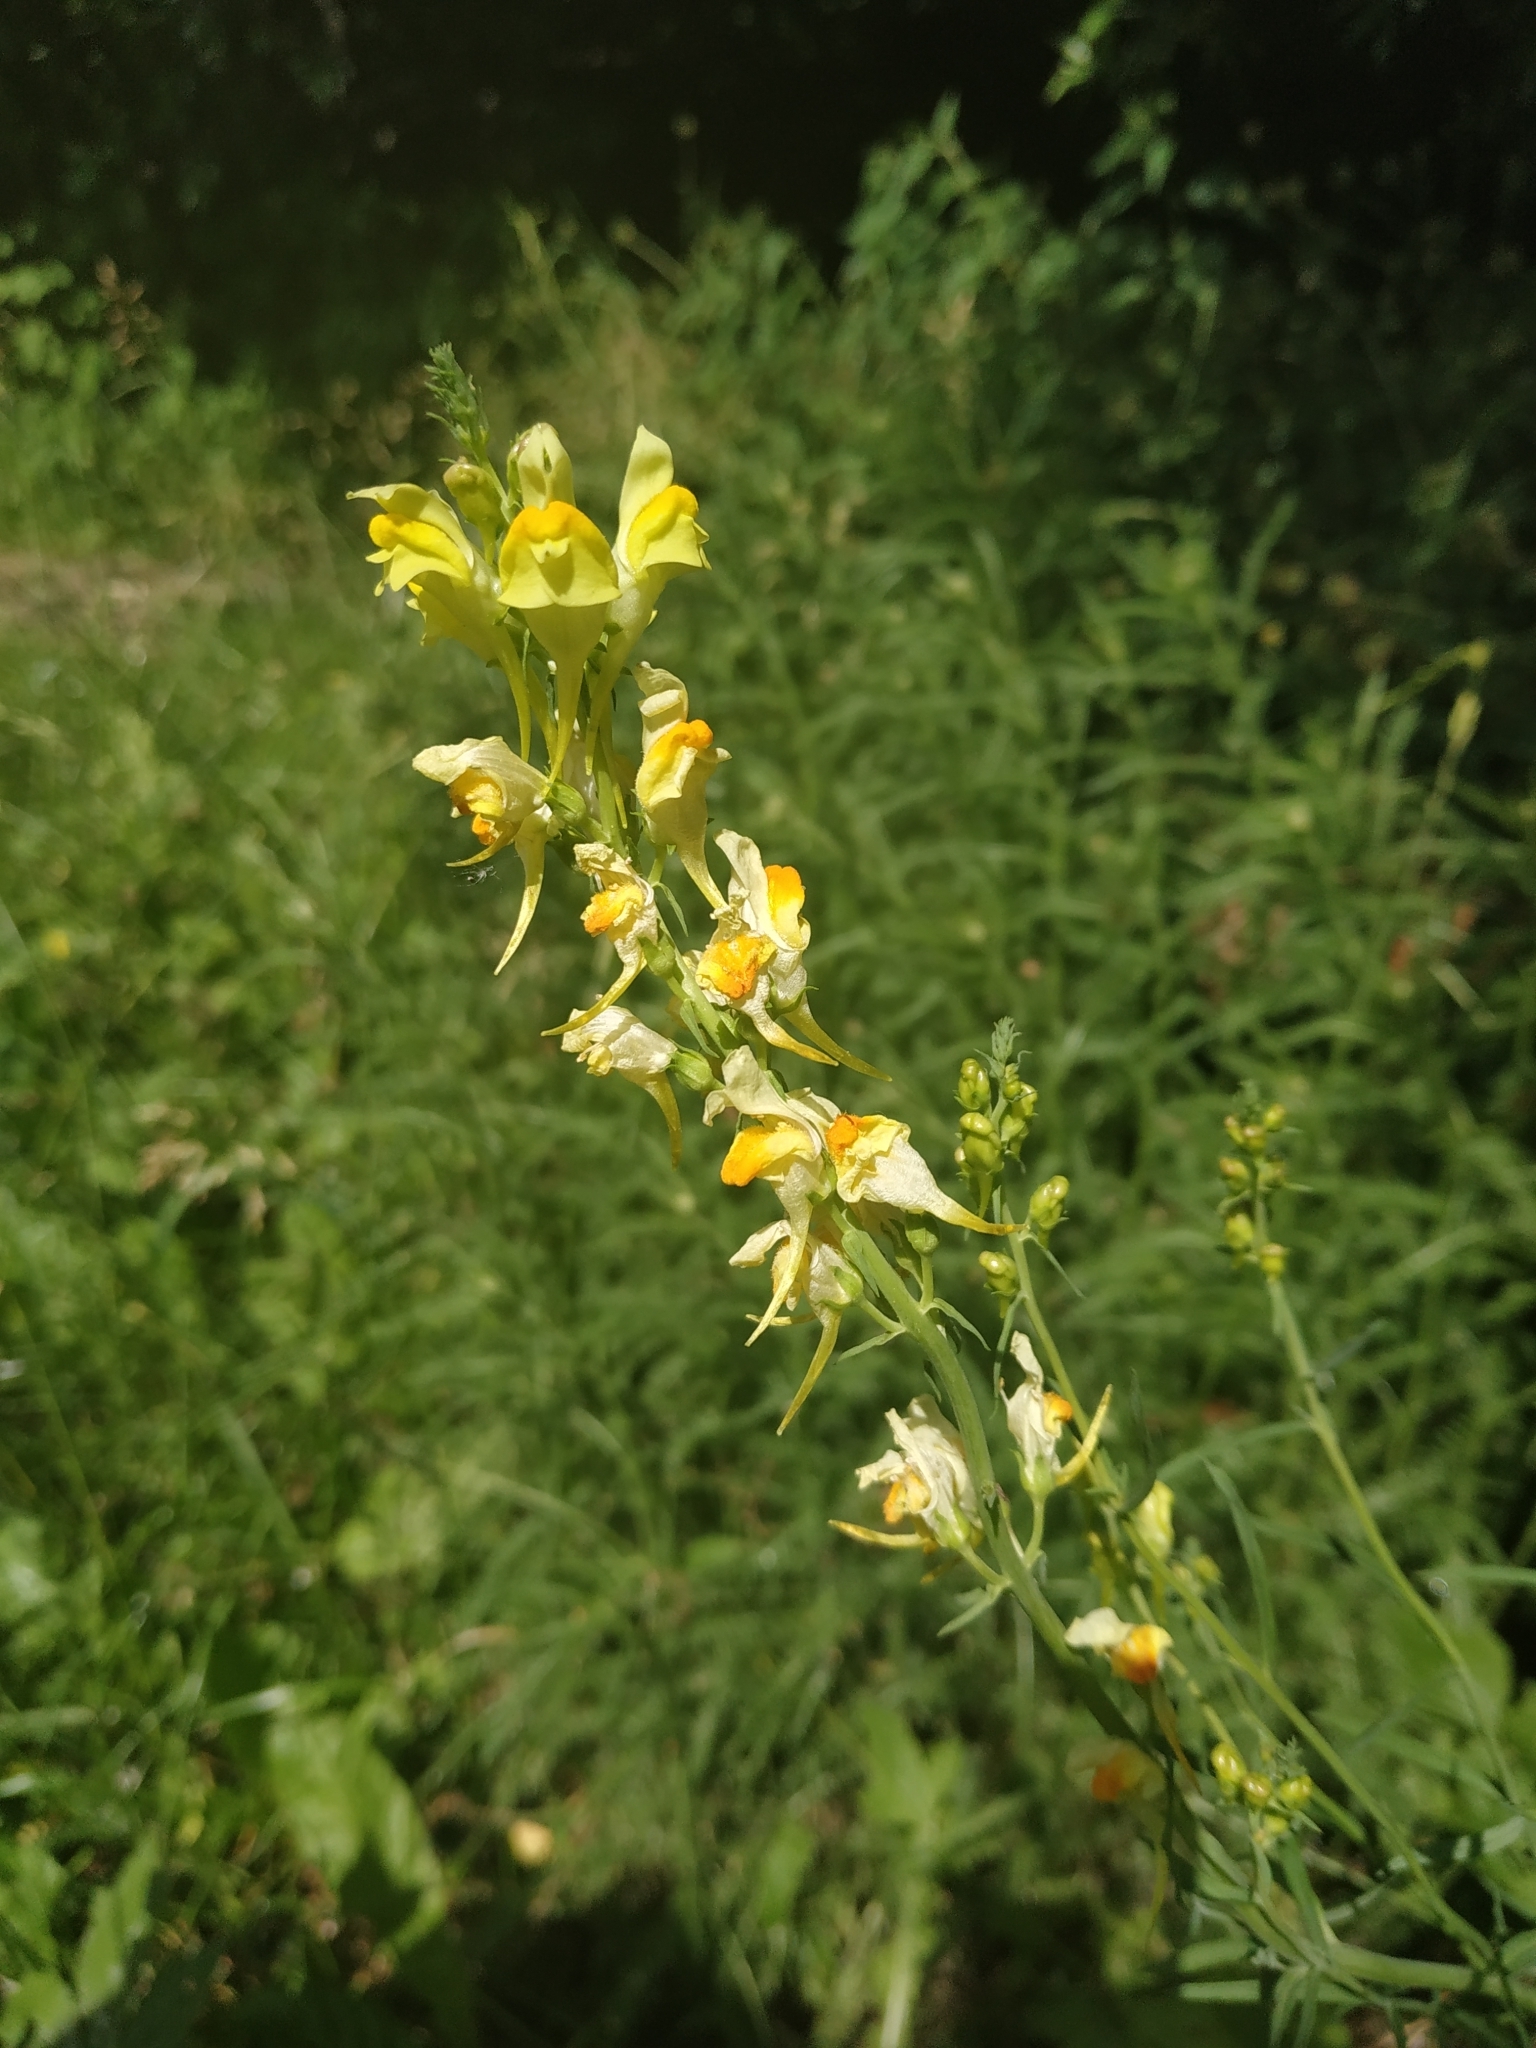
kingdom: Plantae
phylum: Tracheophyta
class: Magnoliopsida
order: Lamiales
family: Plantaginaceae
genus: Linaria
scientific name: Linaria vulgaris
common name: Butter and eggs
